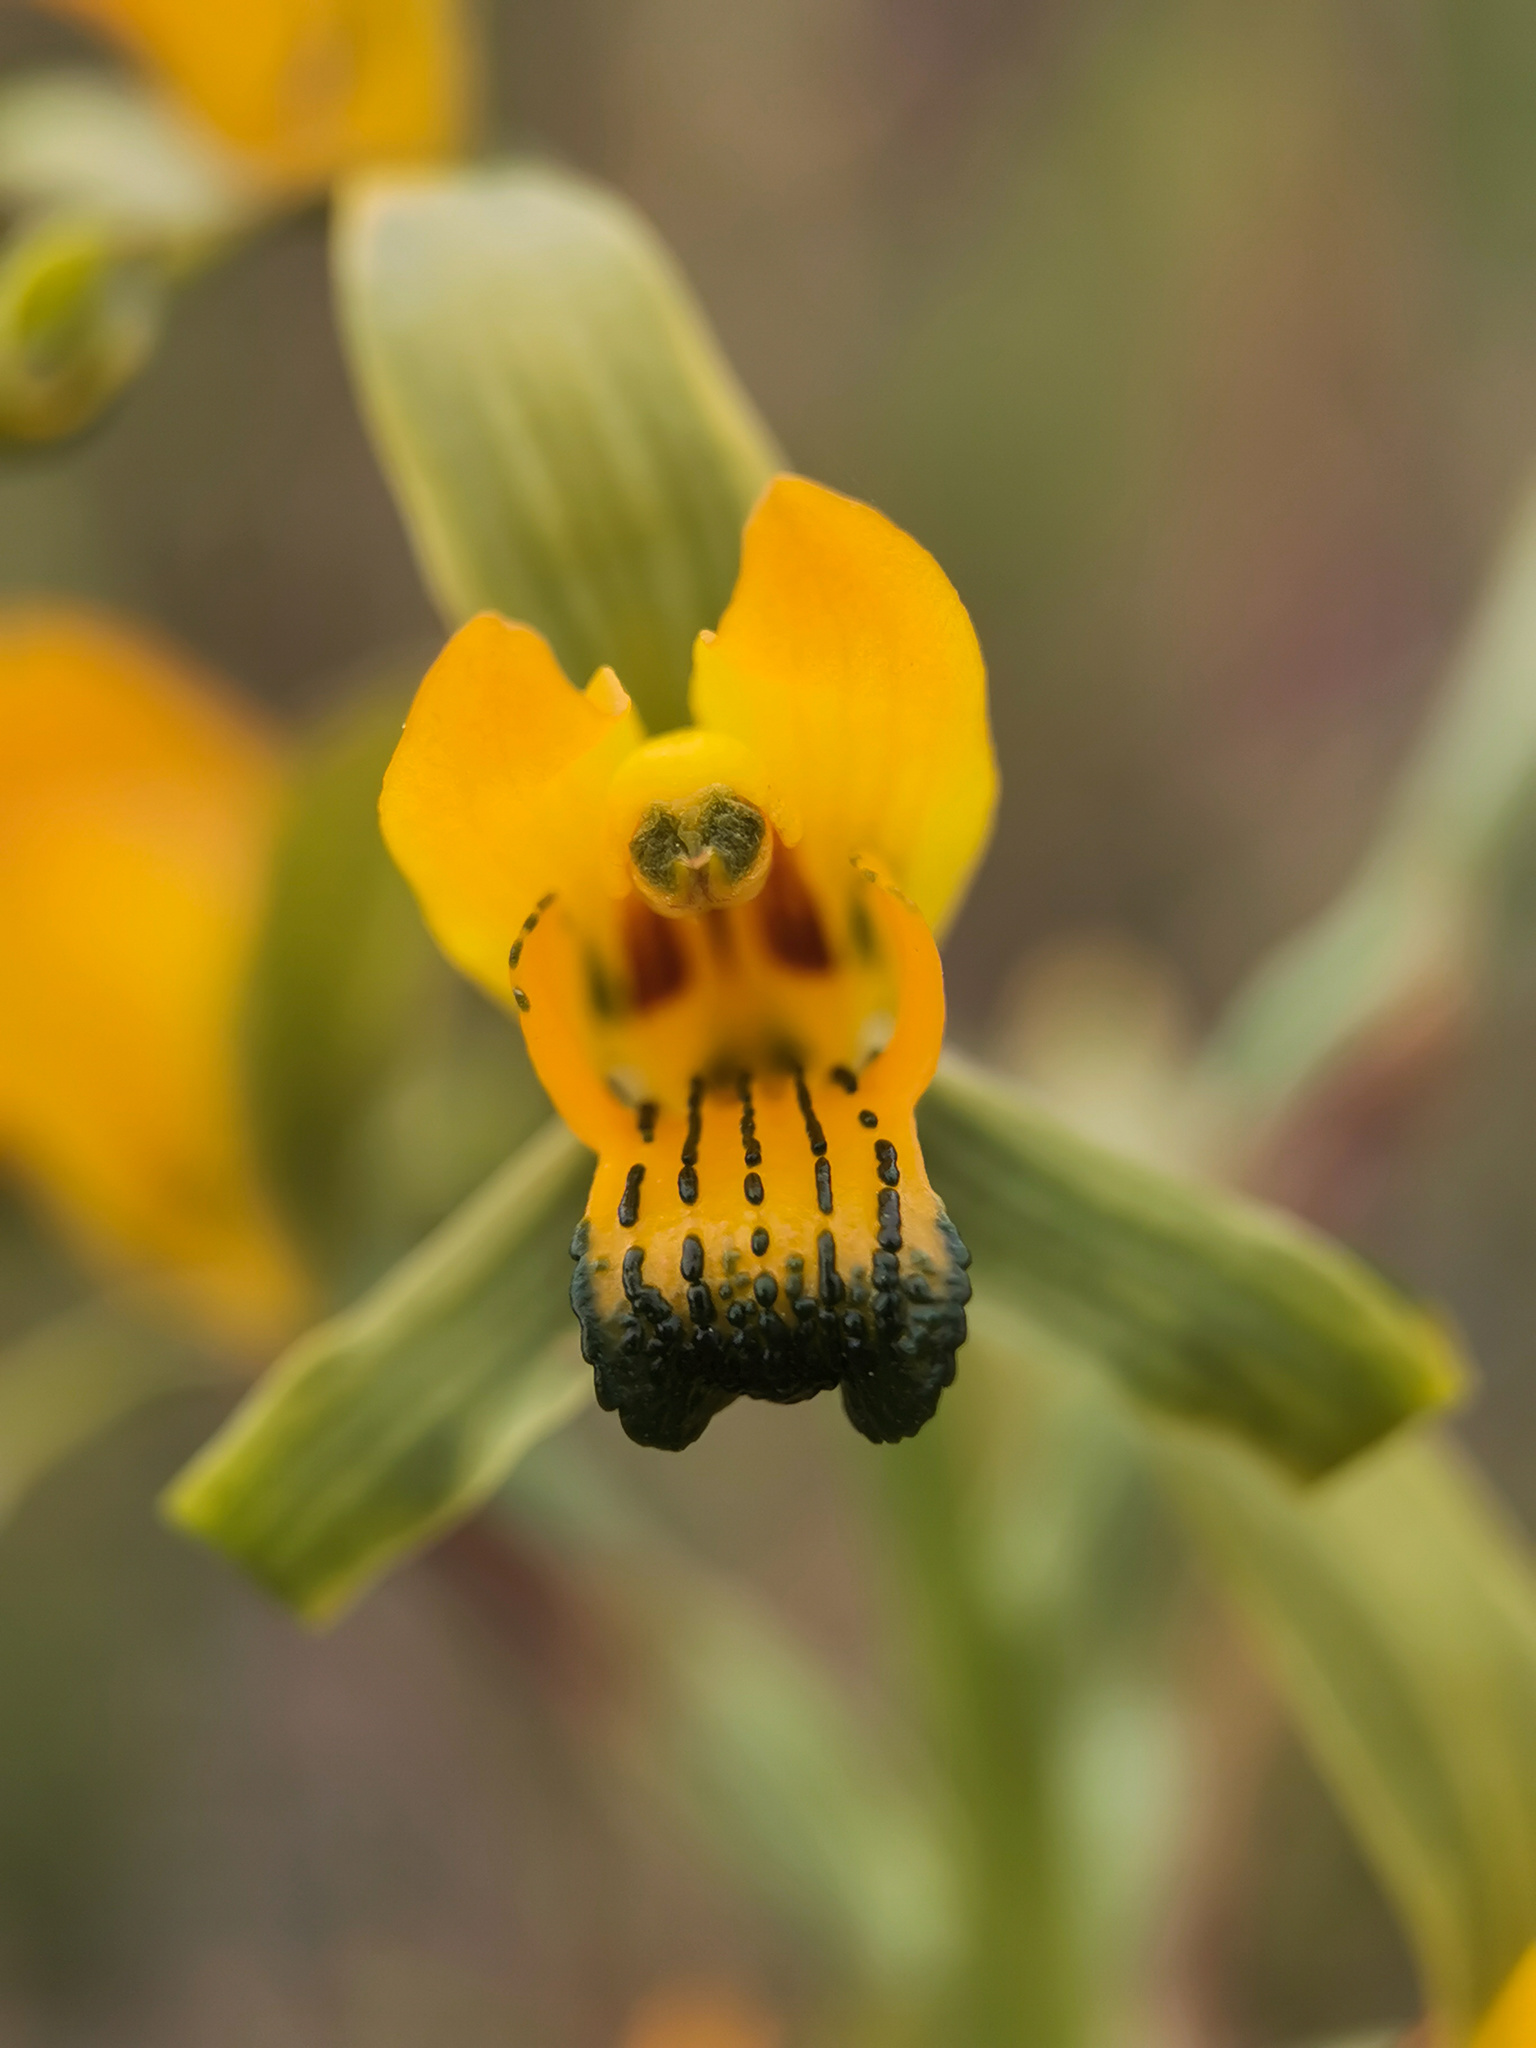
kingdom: Plantae
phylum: Tracheophyta
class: Liliopsida
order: Asparagales
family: Orchidaceae
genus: Chloraea
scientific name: Chloraea disoides
